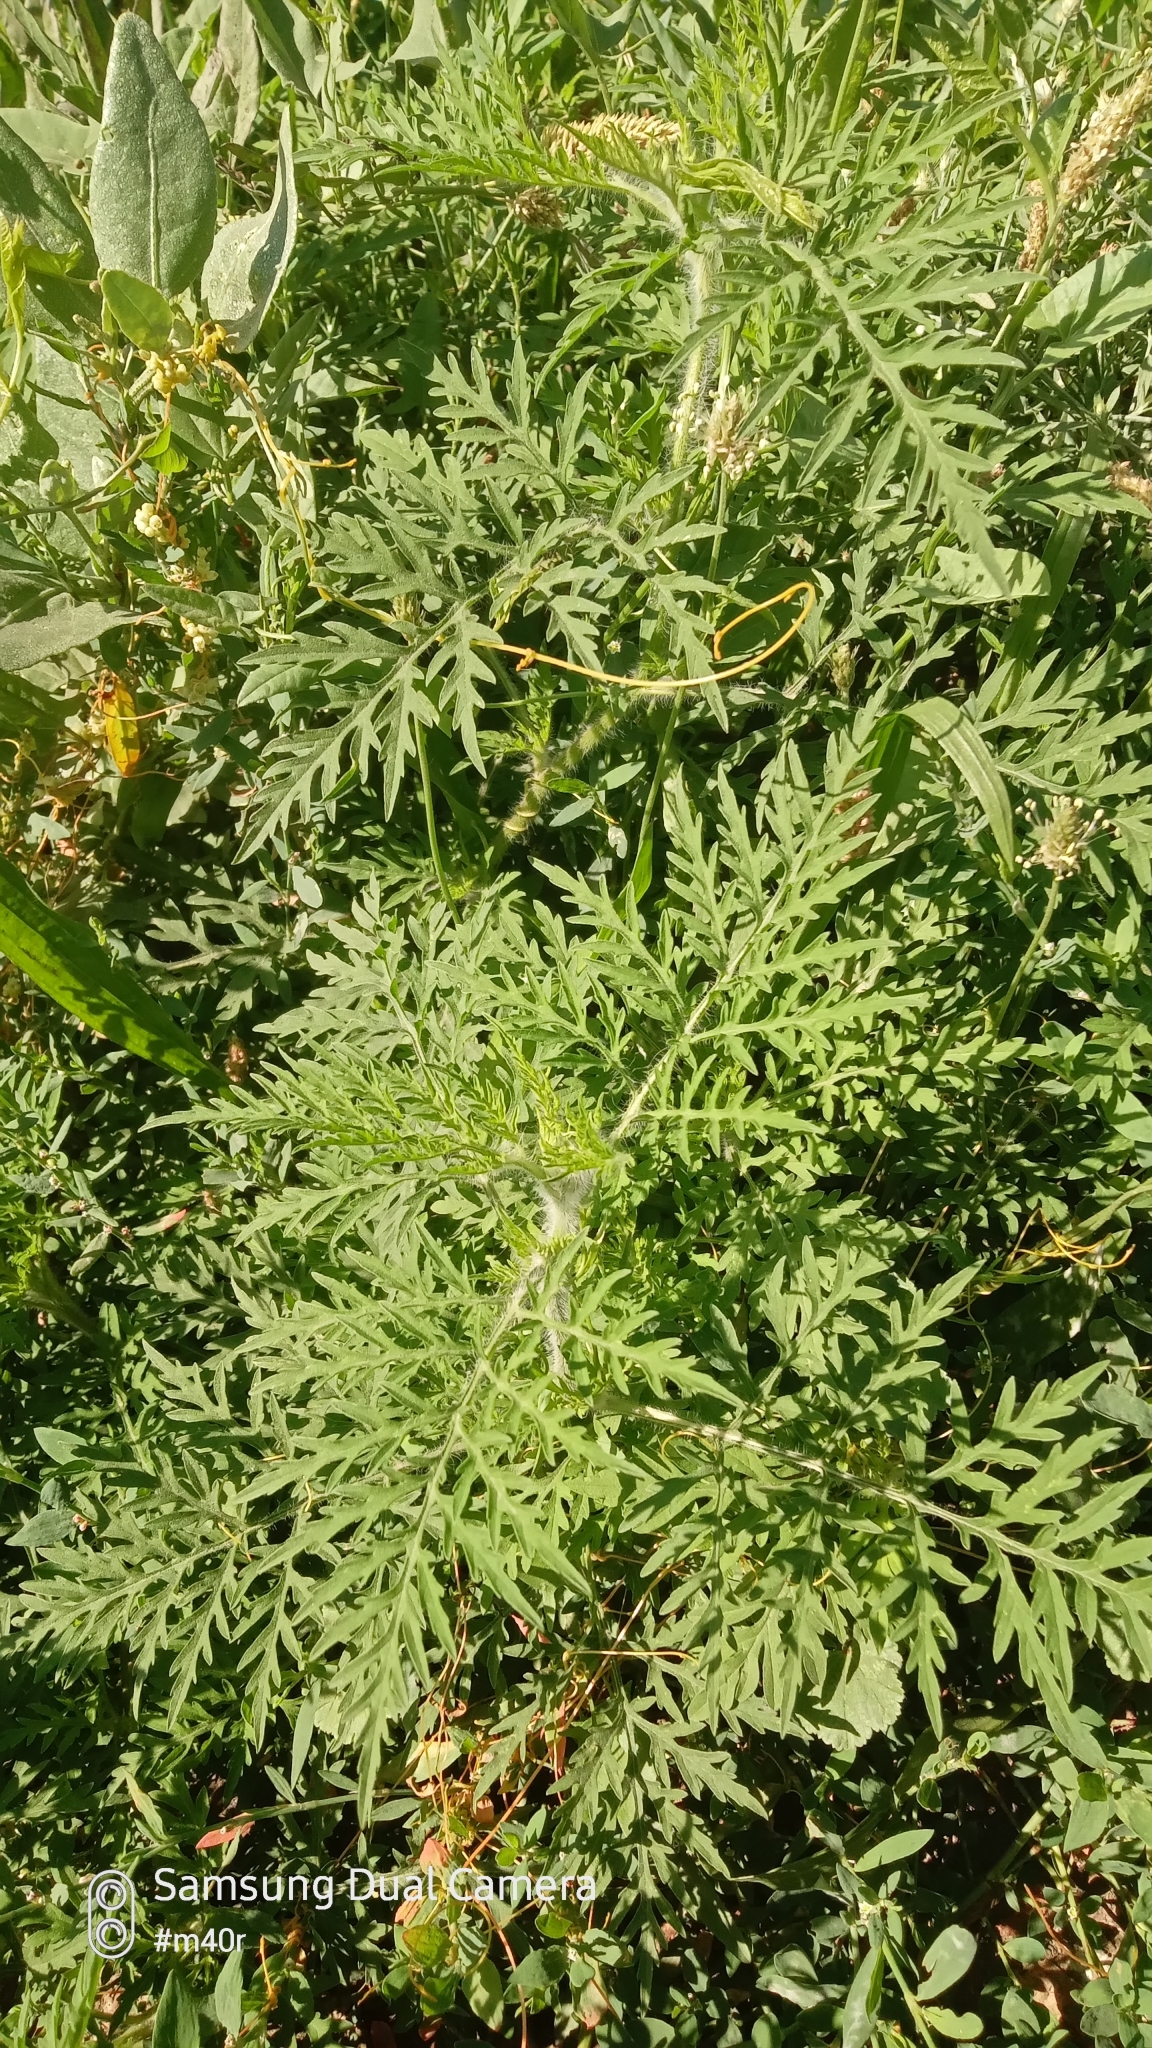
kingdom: Plantae
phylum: Tracheophyta
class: Magnoliopsida
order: Asterales
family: Asteraceae
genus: Ambrosia
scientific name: Ambrosia artemisiifolia
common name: Annual ragweed
